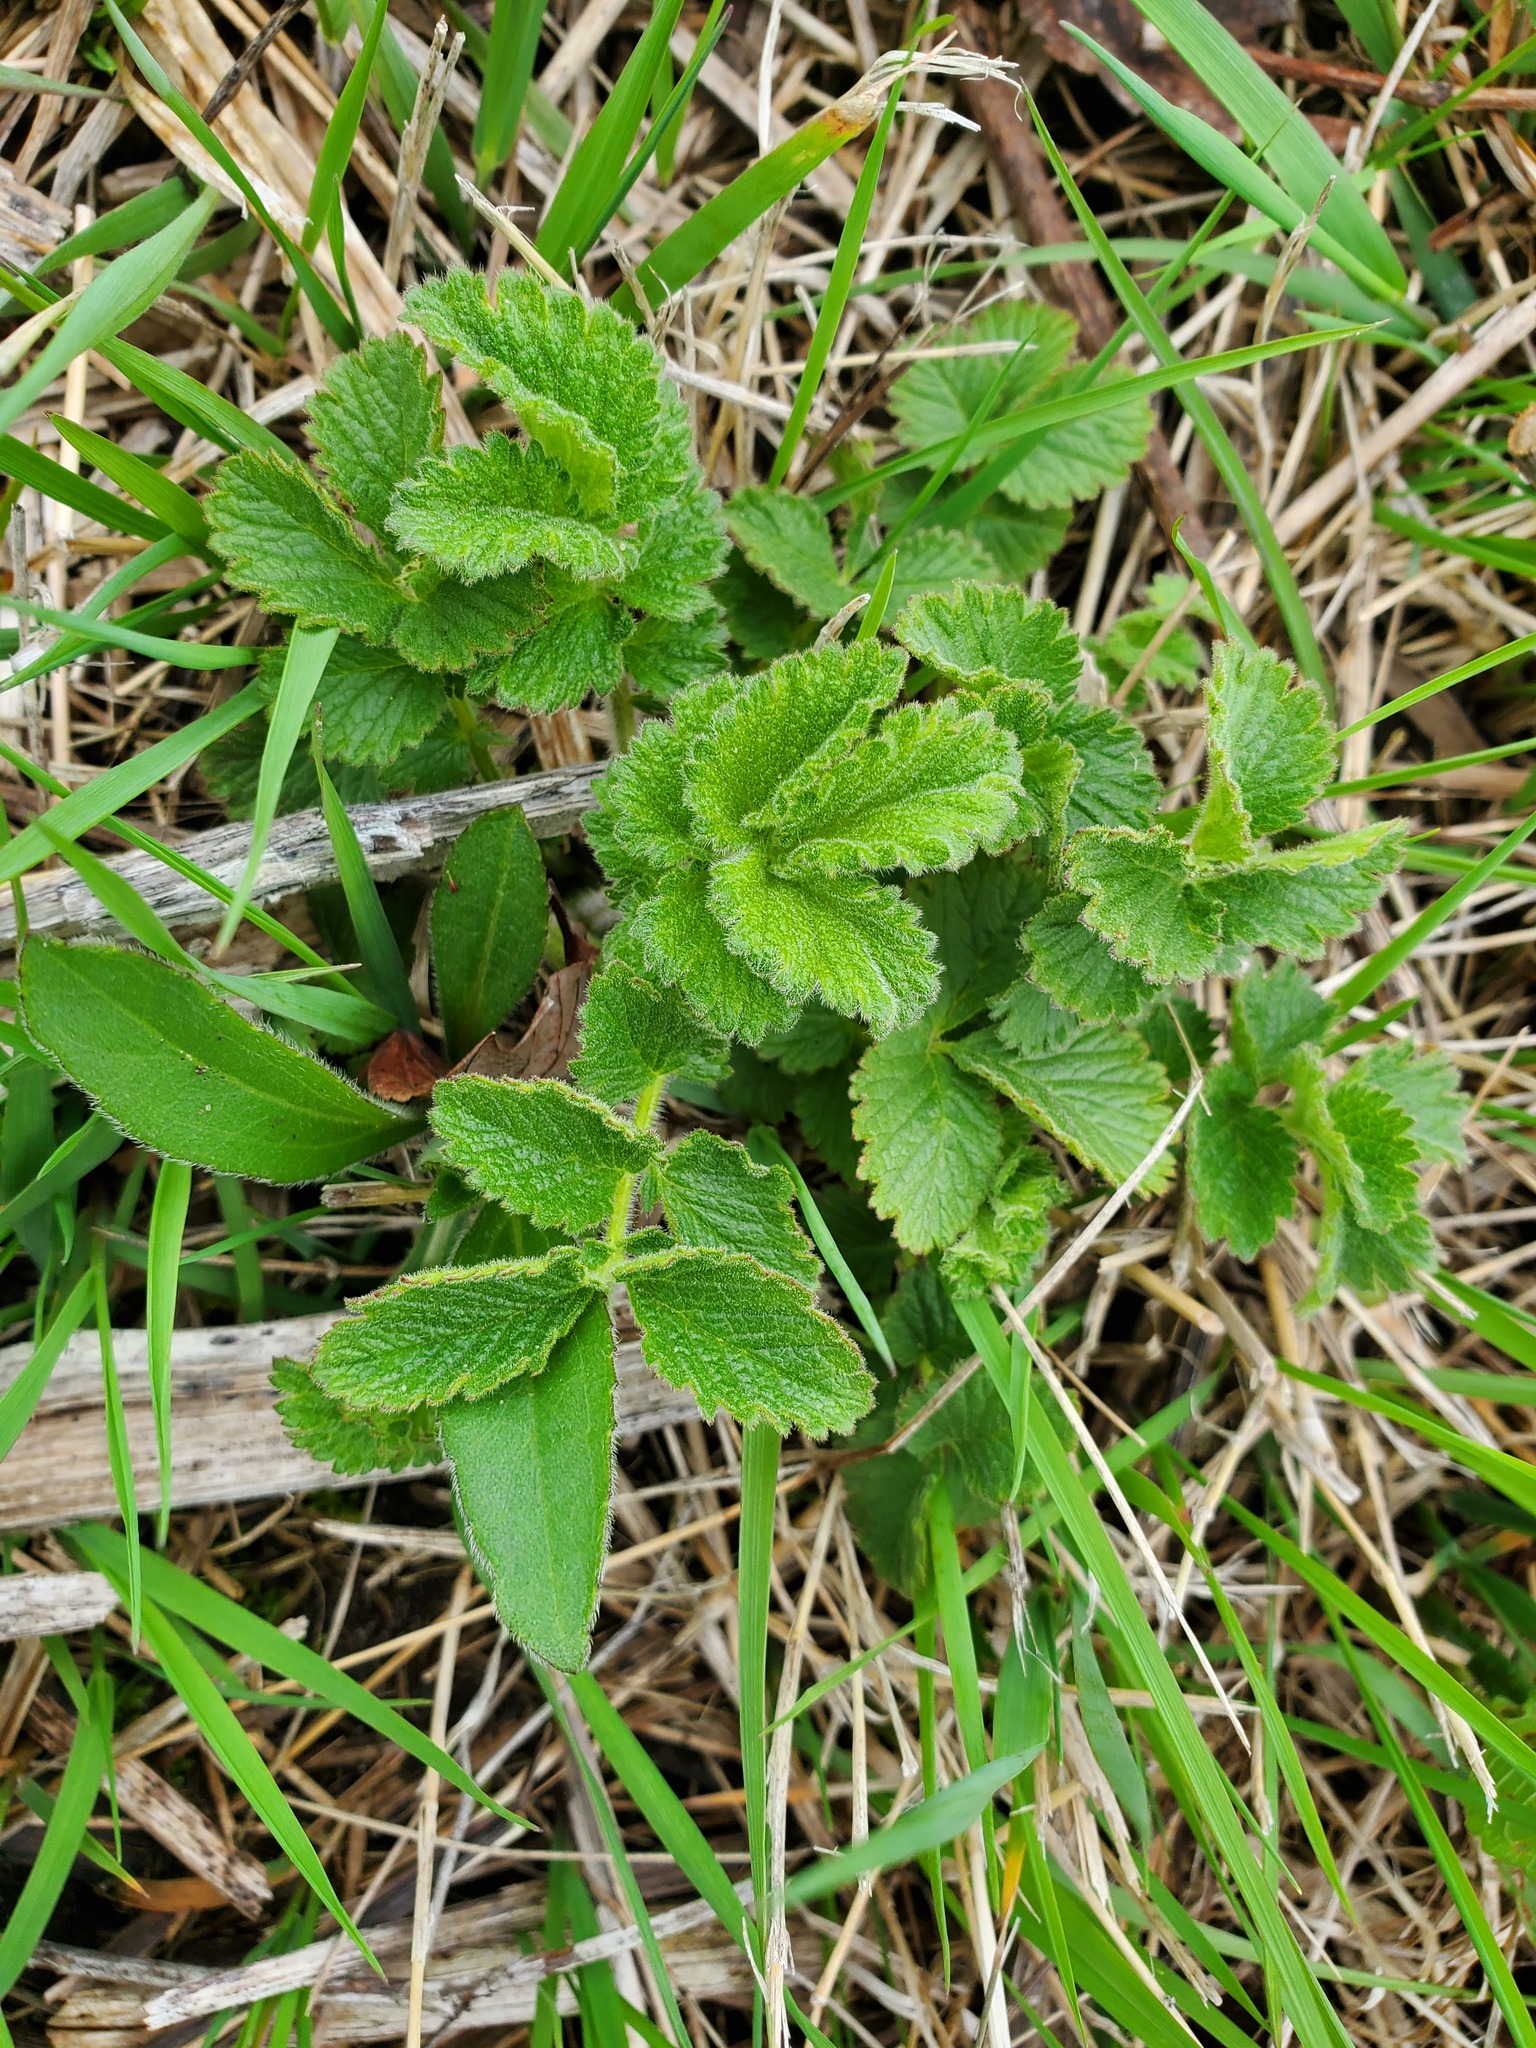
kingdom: Plantae
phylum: Tracheophyta
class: Magnoliopsida
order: Rosales
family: Rosaceae
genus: Drymocallis
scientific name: Drymocallis arguta
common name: Tall cinquefoil
